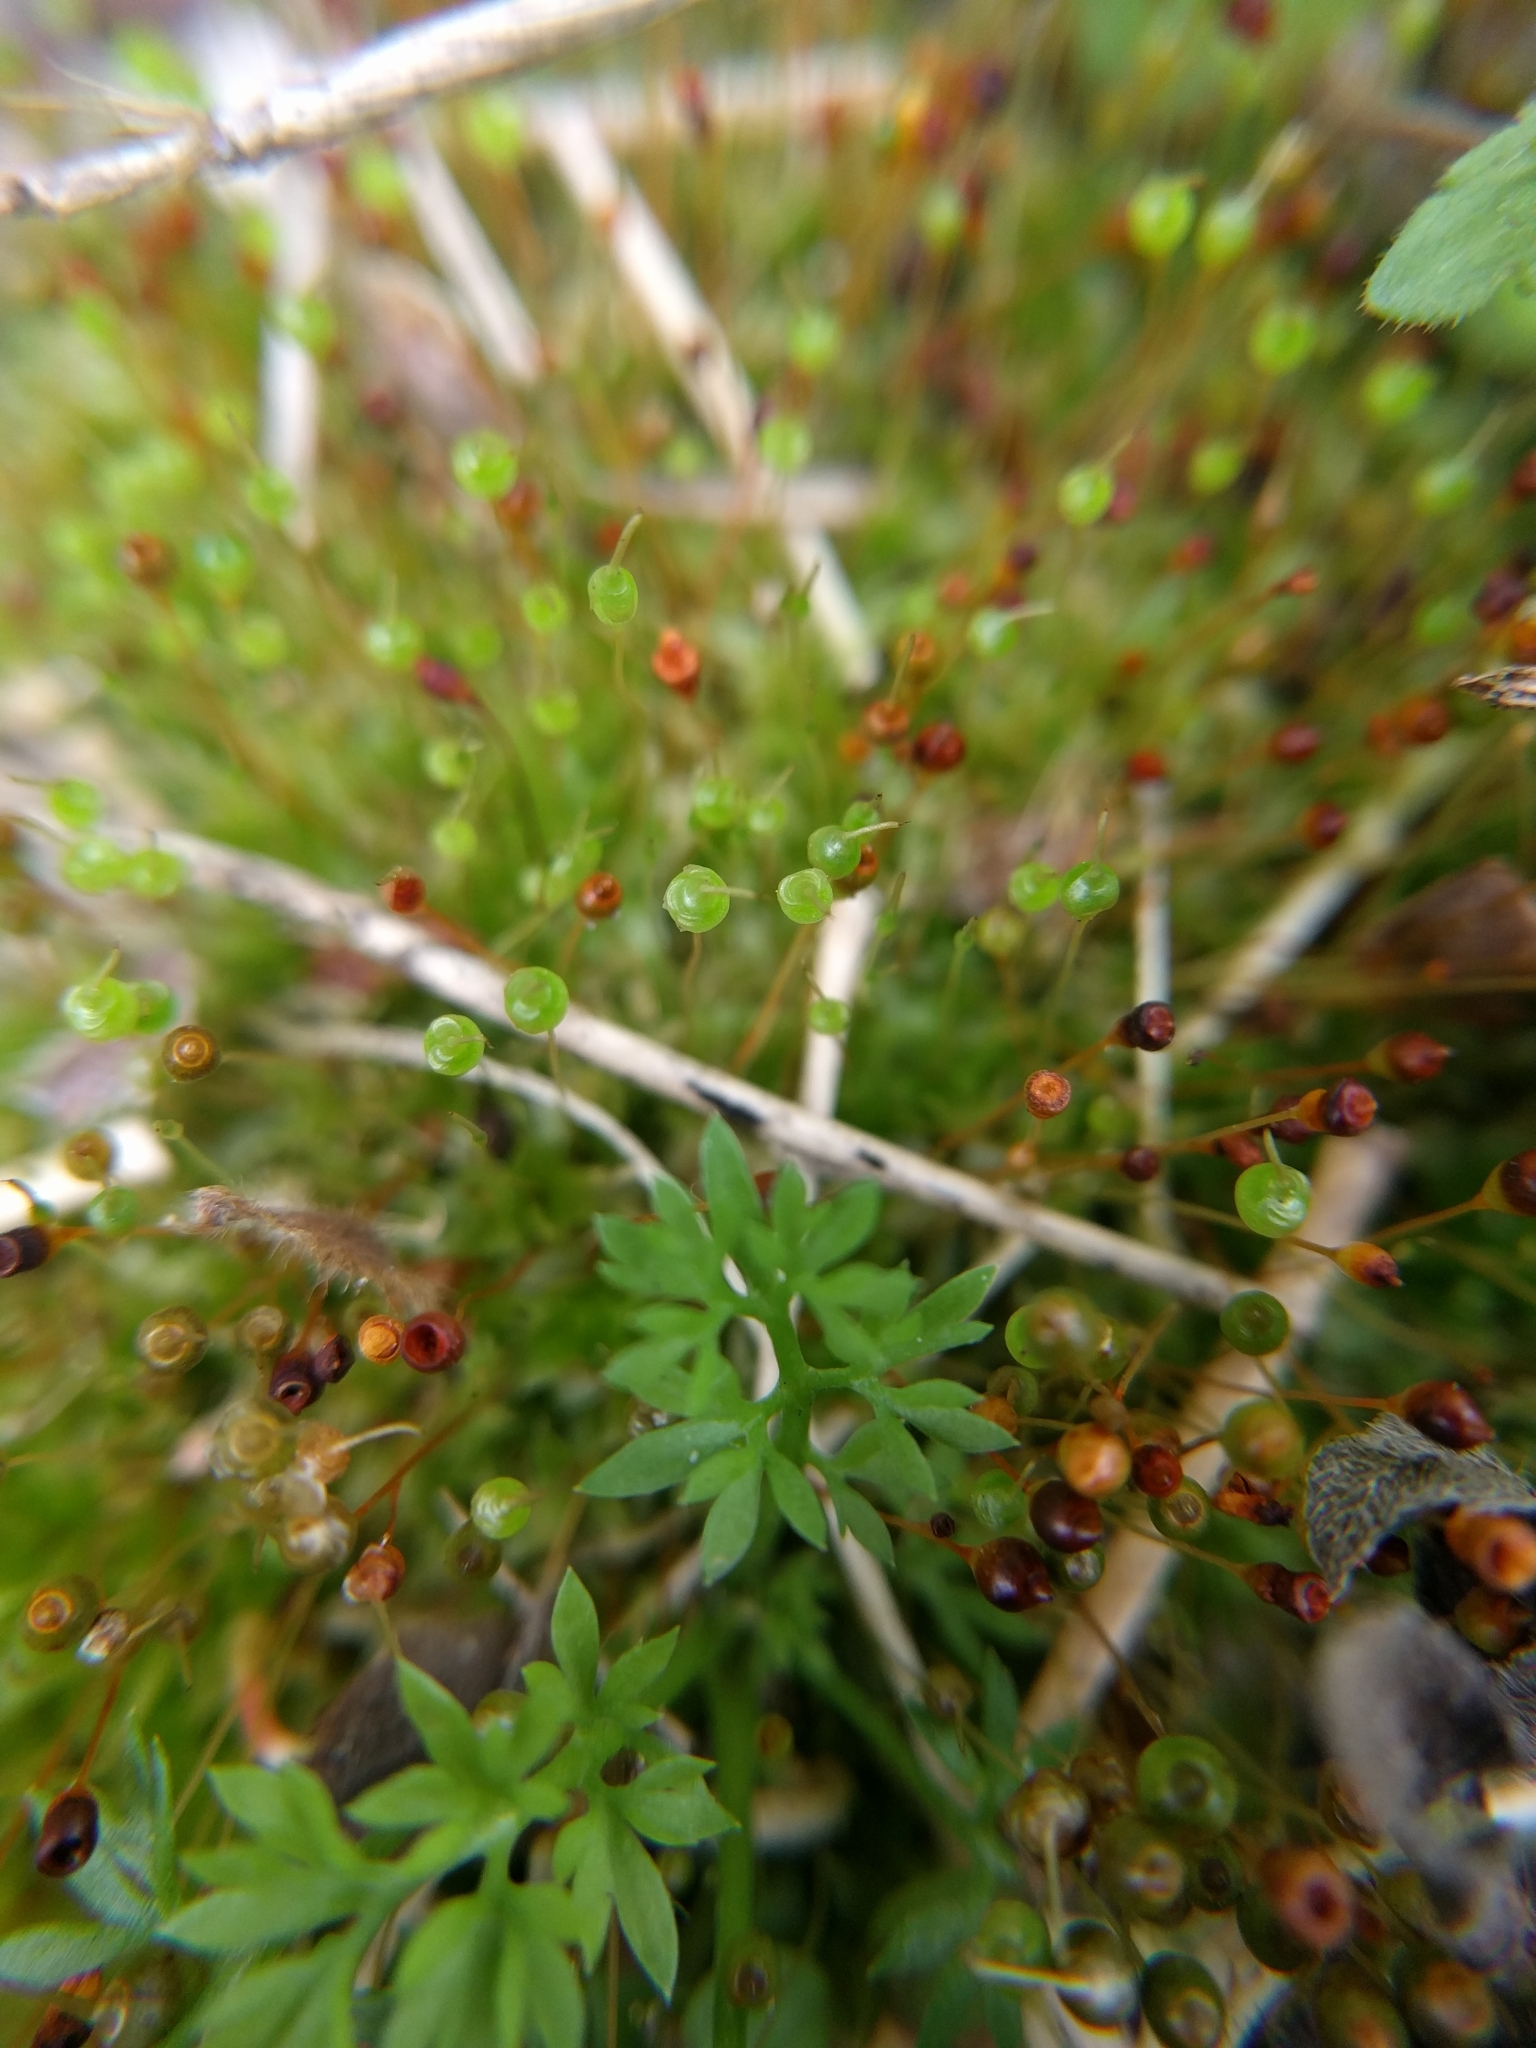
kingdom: Plantae
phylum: Bryophyta
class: Bryopsida
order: Funariales
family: Funariaceae
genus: Physcomitrium
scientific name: Physcomitrium pyriforme
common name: Common bladder-moss
